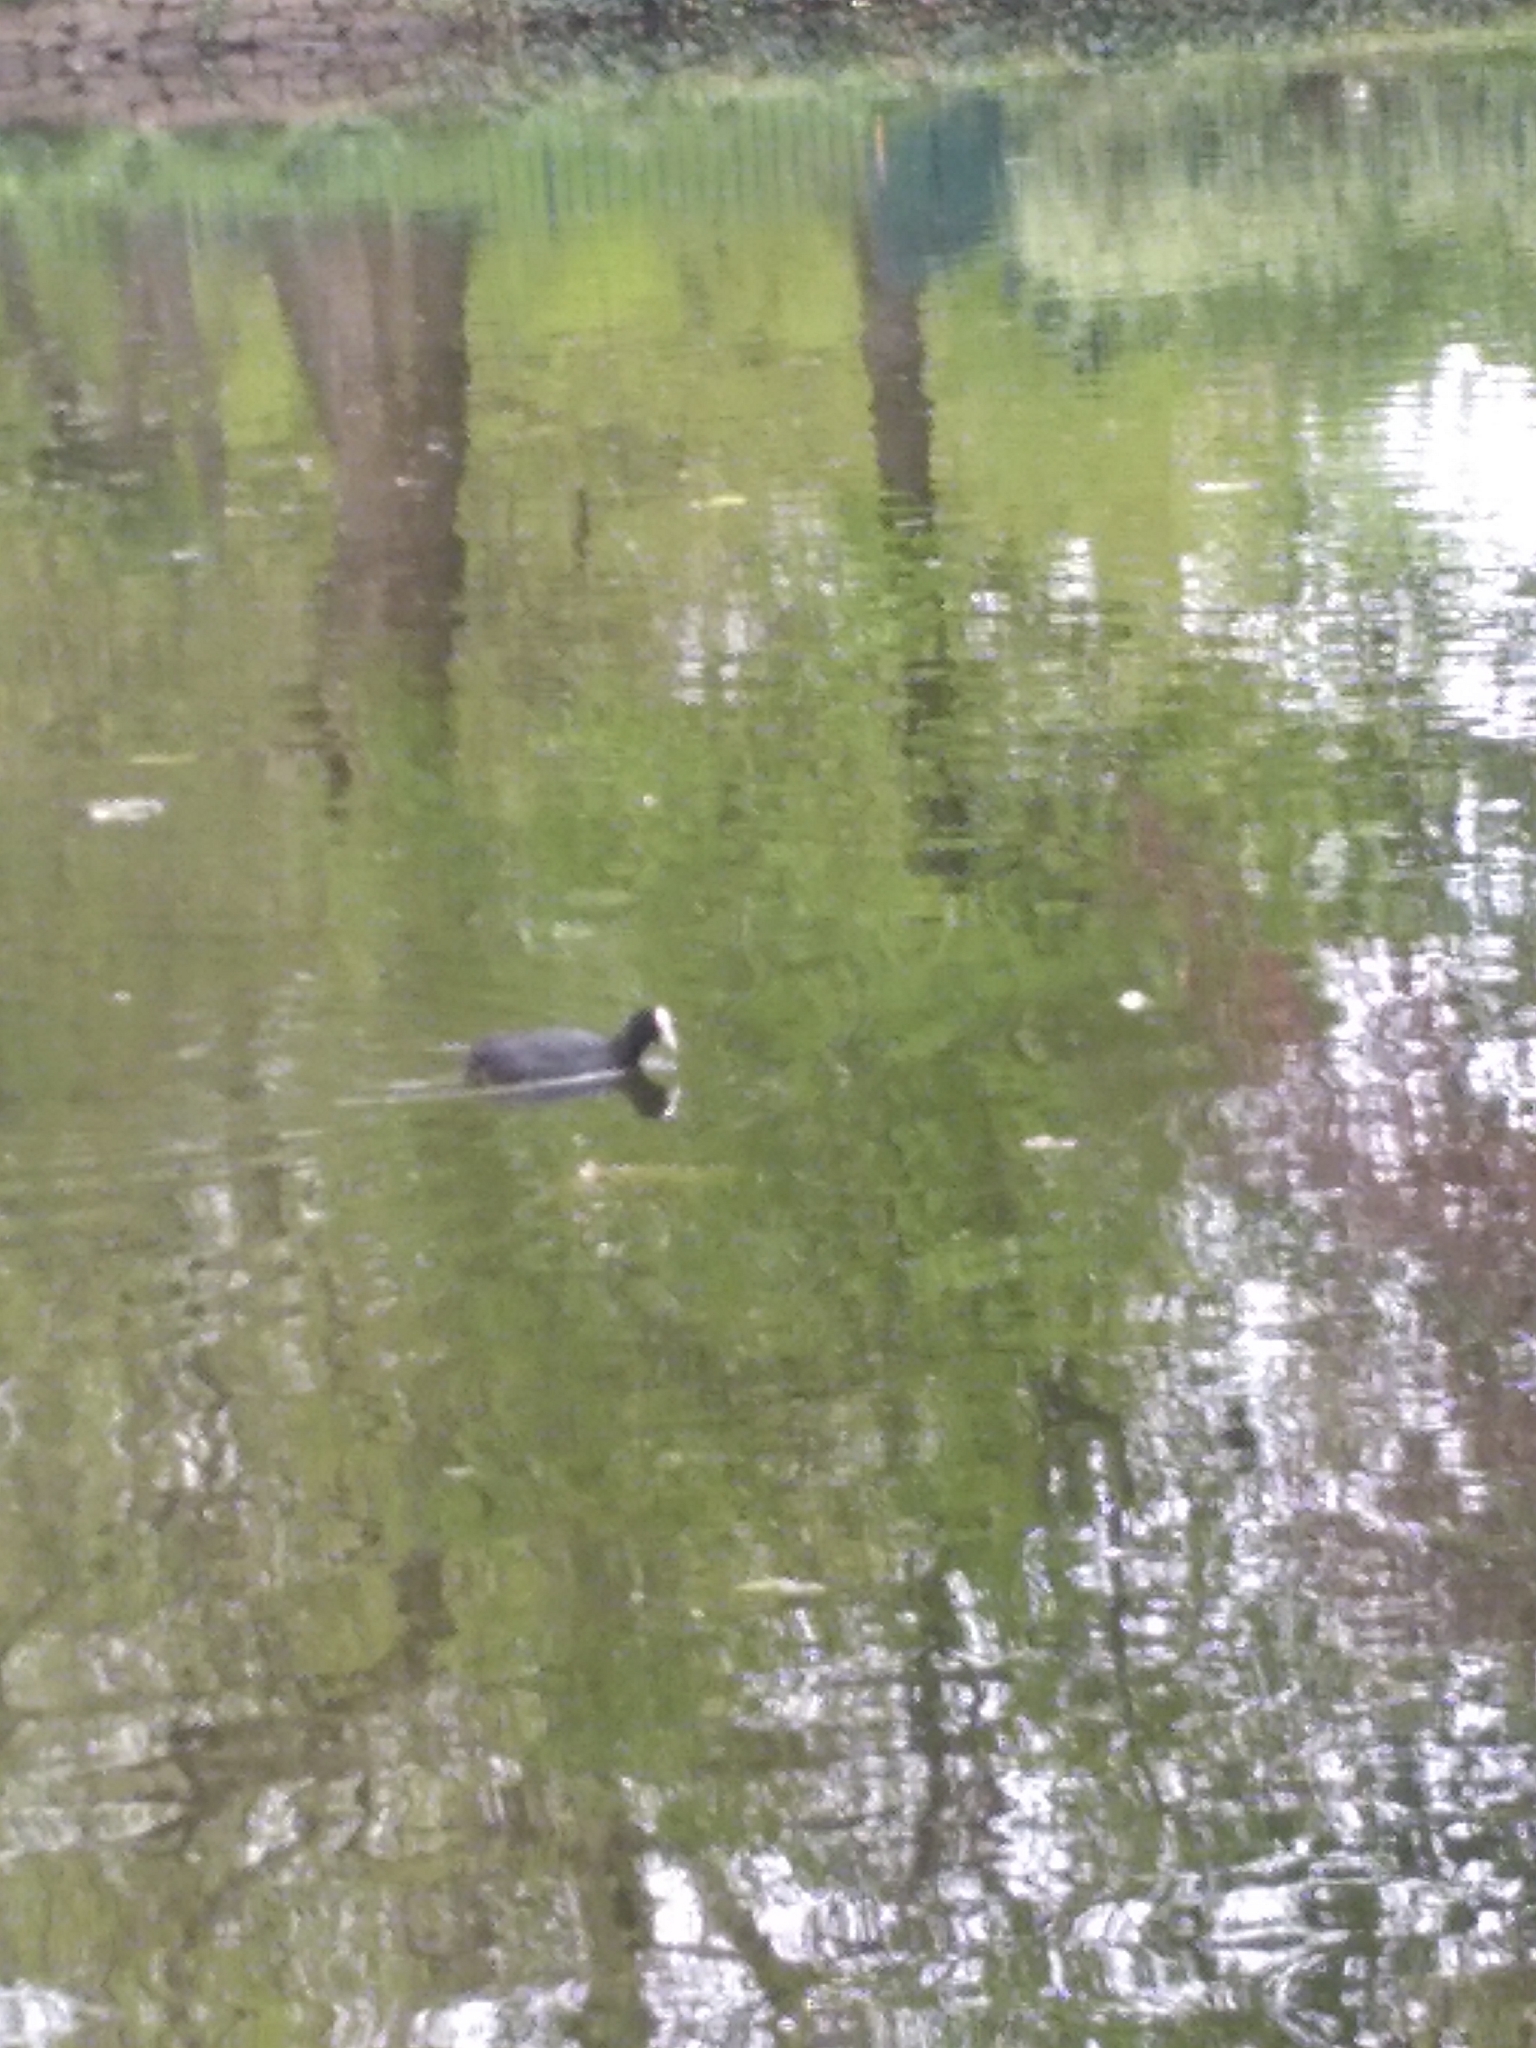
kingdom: Animalia
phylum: Chordata
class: Aves
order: Gruiformes
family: Rallidae
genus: Fulica
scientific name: Fulica atra
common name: Eurasian coot
